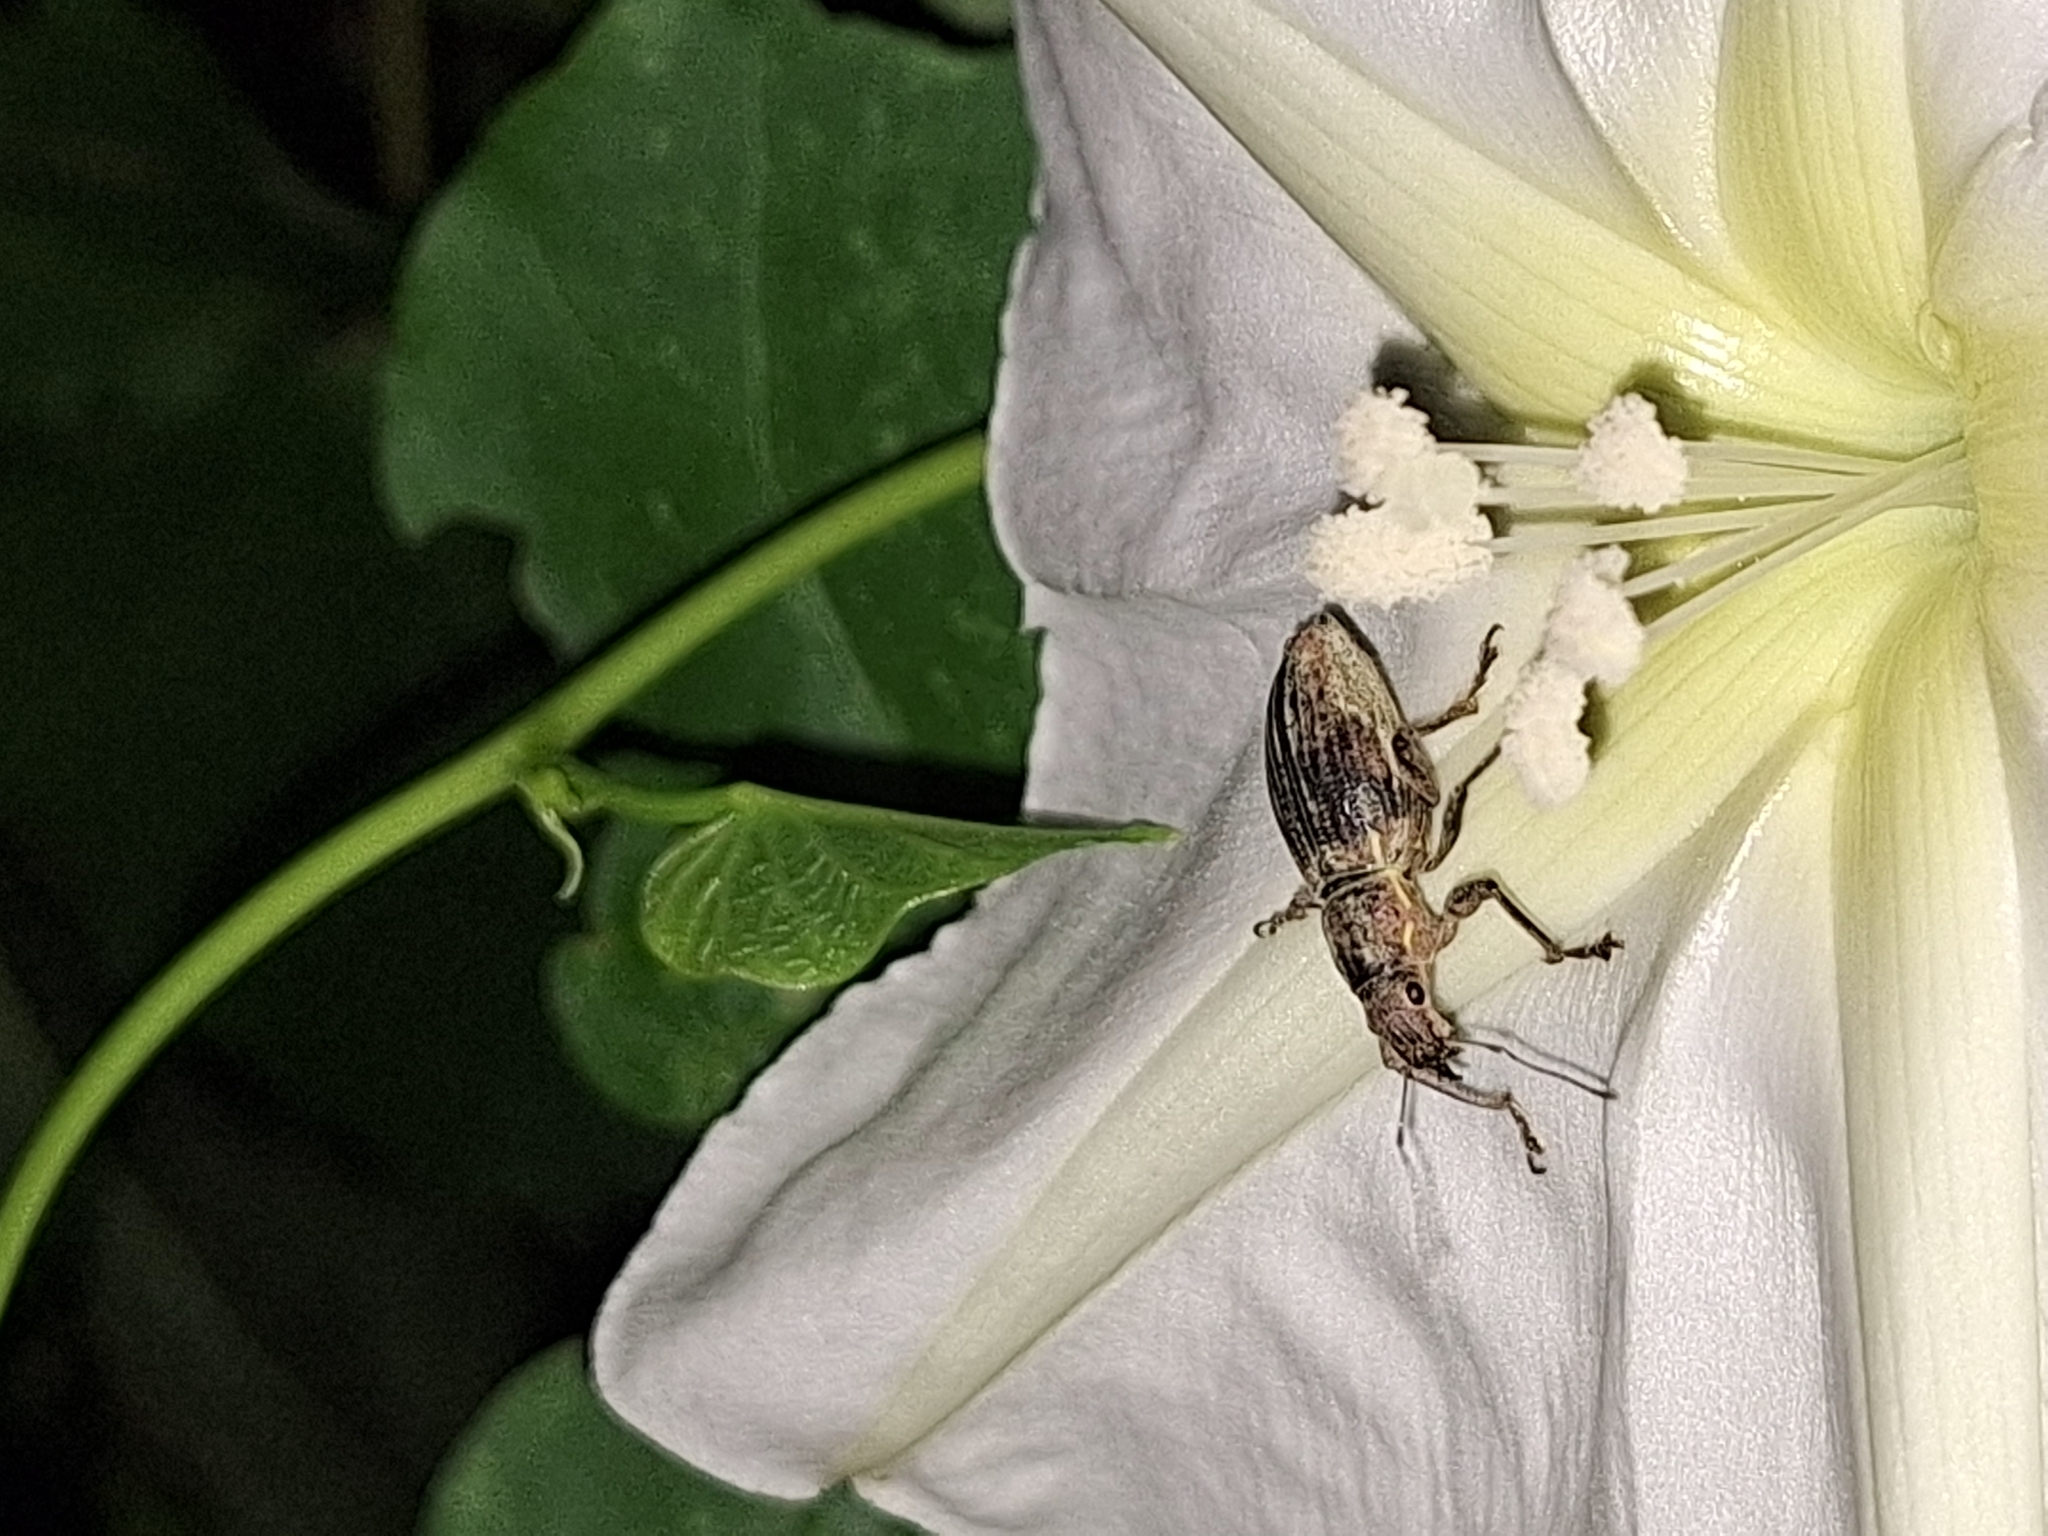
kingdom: Animalia
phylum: Arthropoda
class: Insecta
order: Coleoptera
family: Curculionidae
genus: Naupactus
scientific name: Naupactus xanthographus
